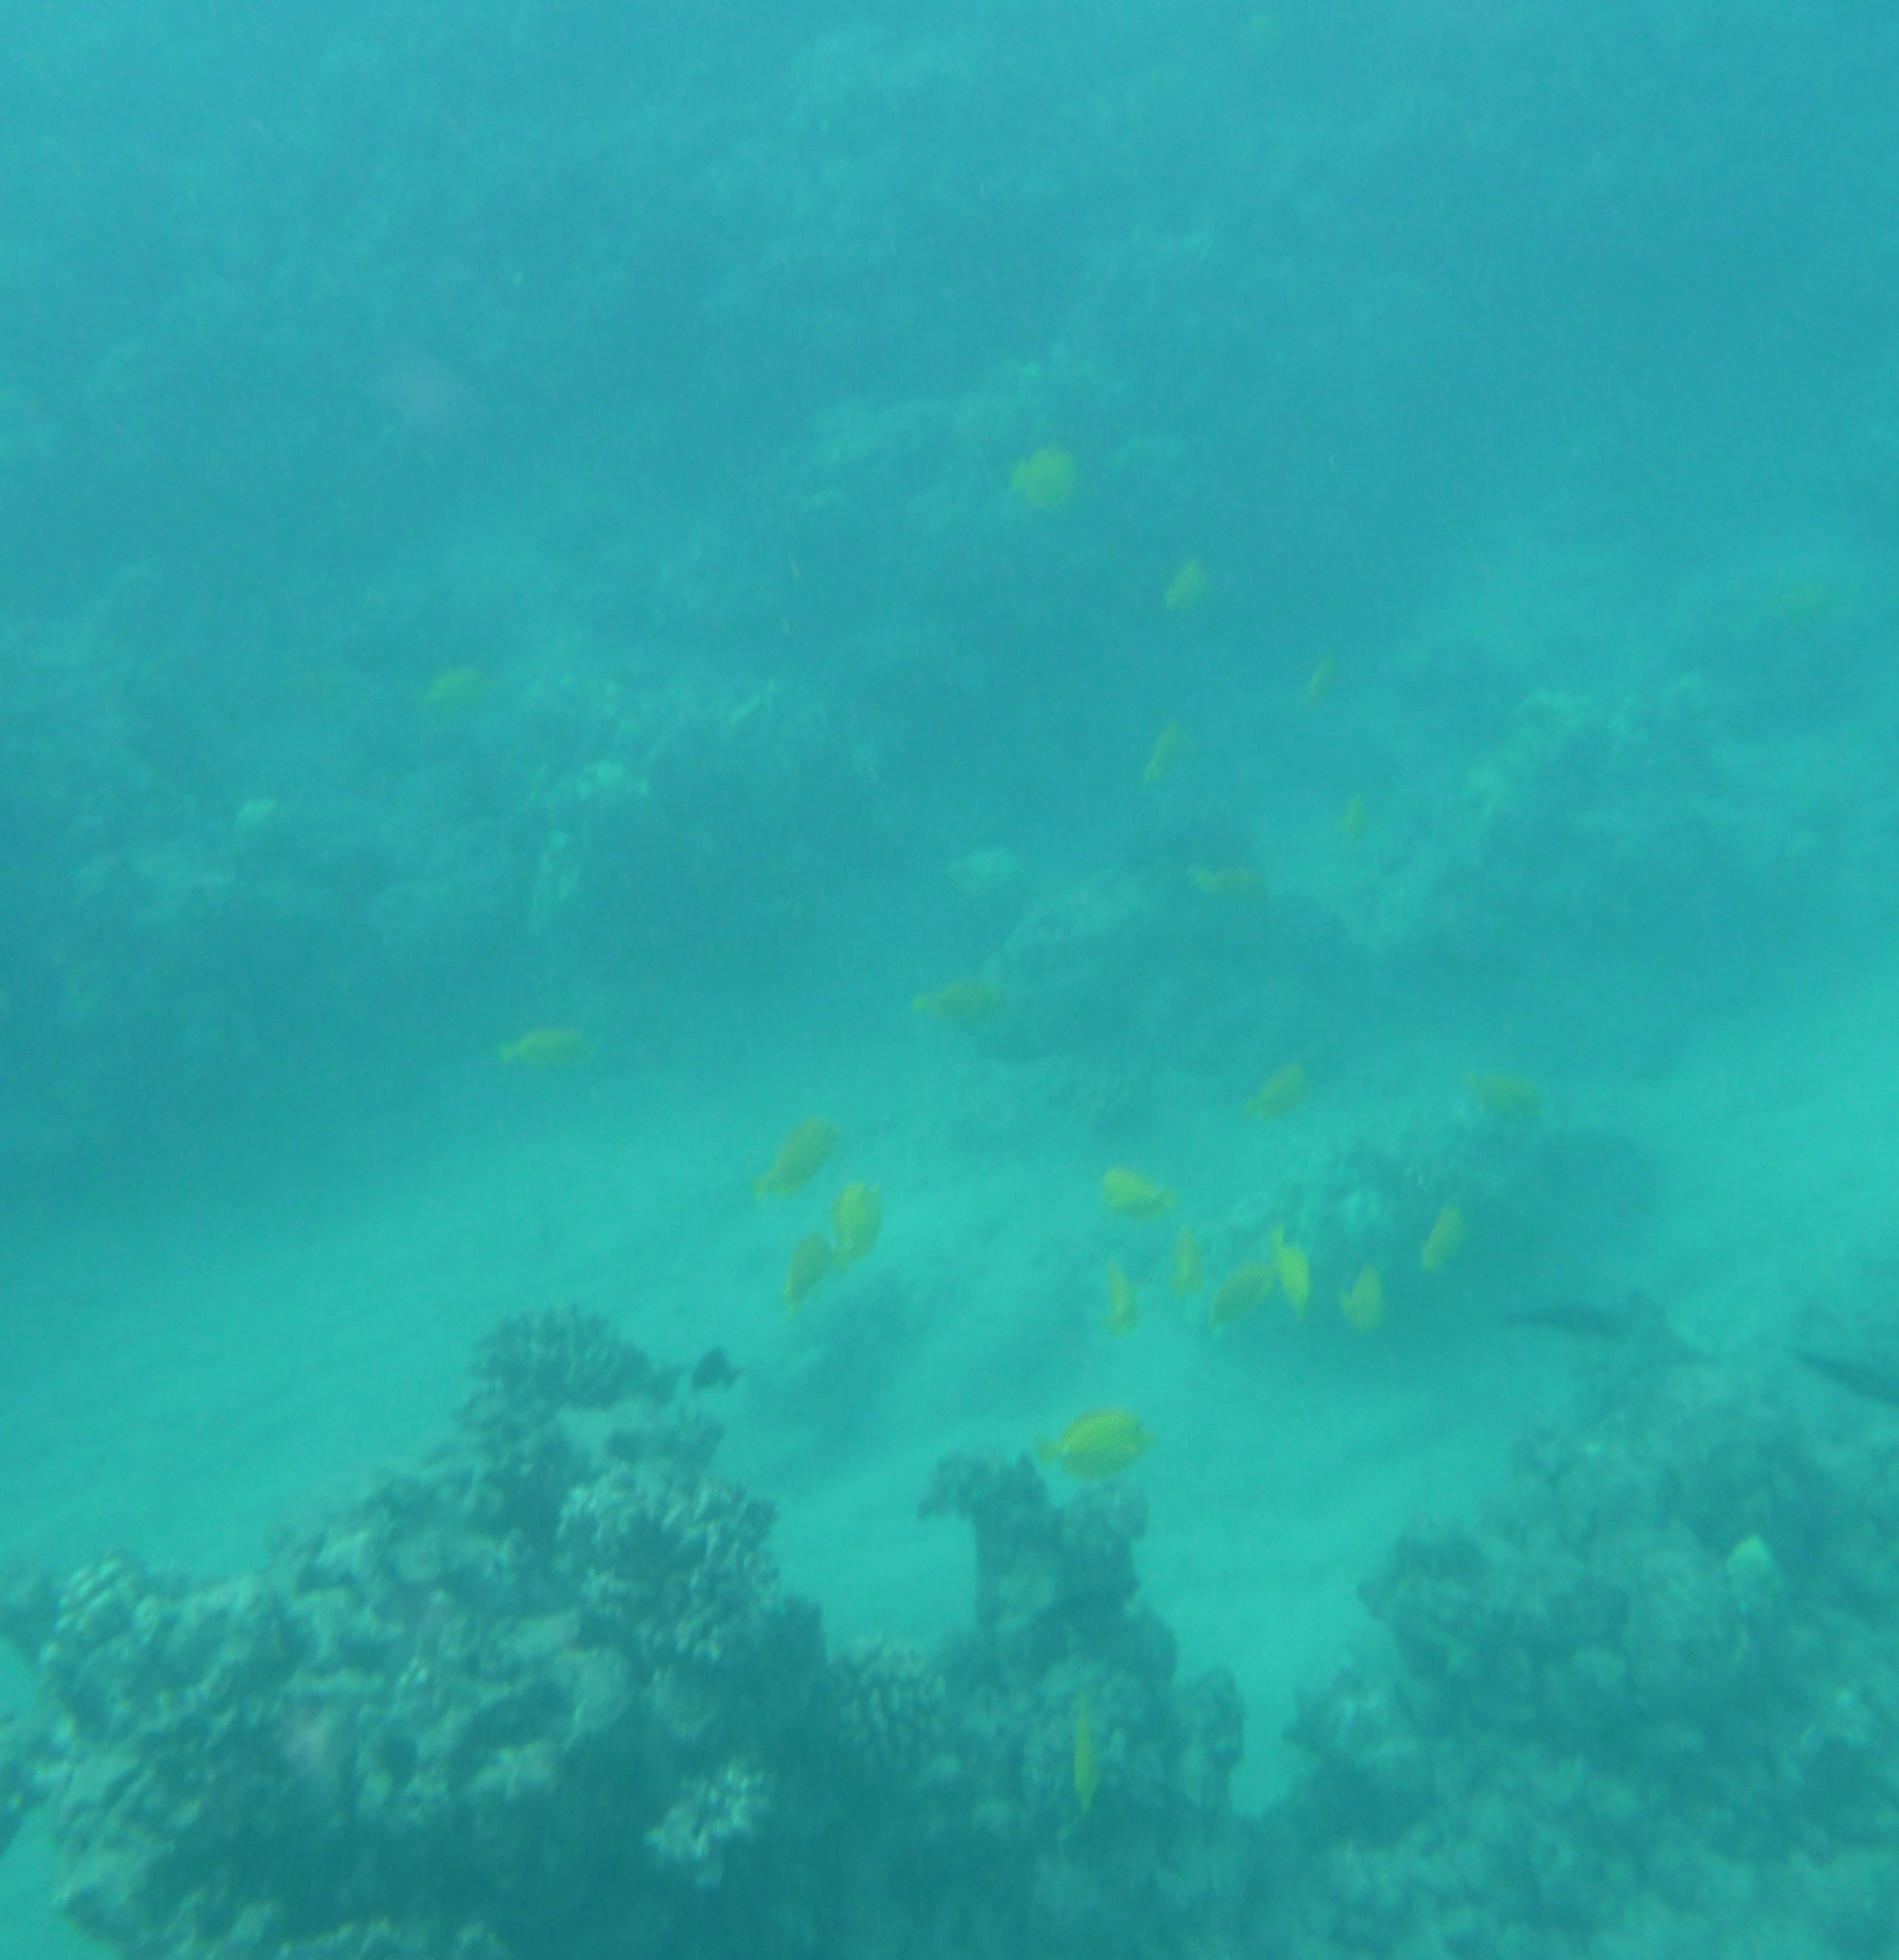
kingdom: Animalia
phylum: Chordata
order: Perciformes
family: Acanthuridae
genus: Zebrasoma
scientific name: Zebrasoma flavescens
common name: Yellow tang
